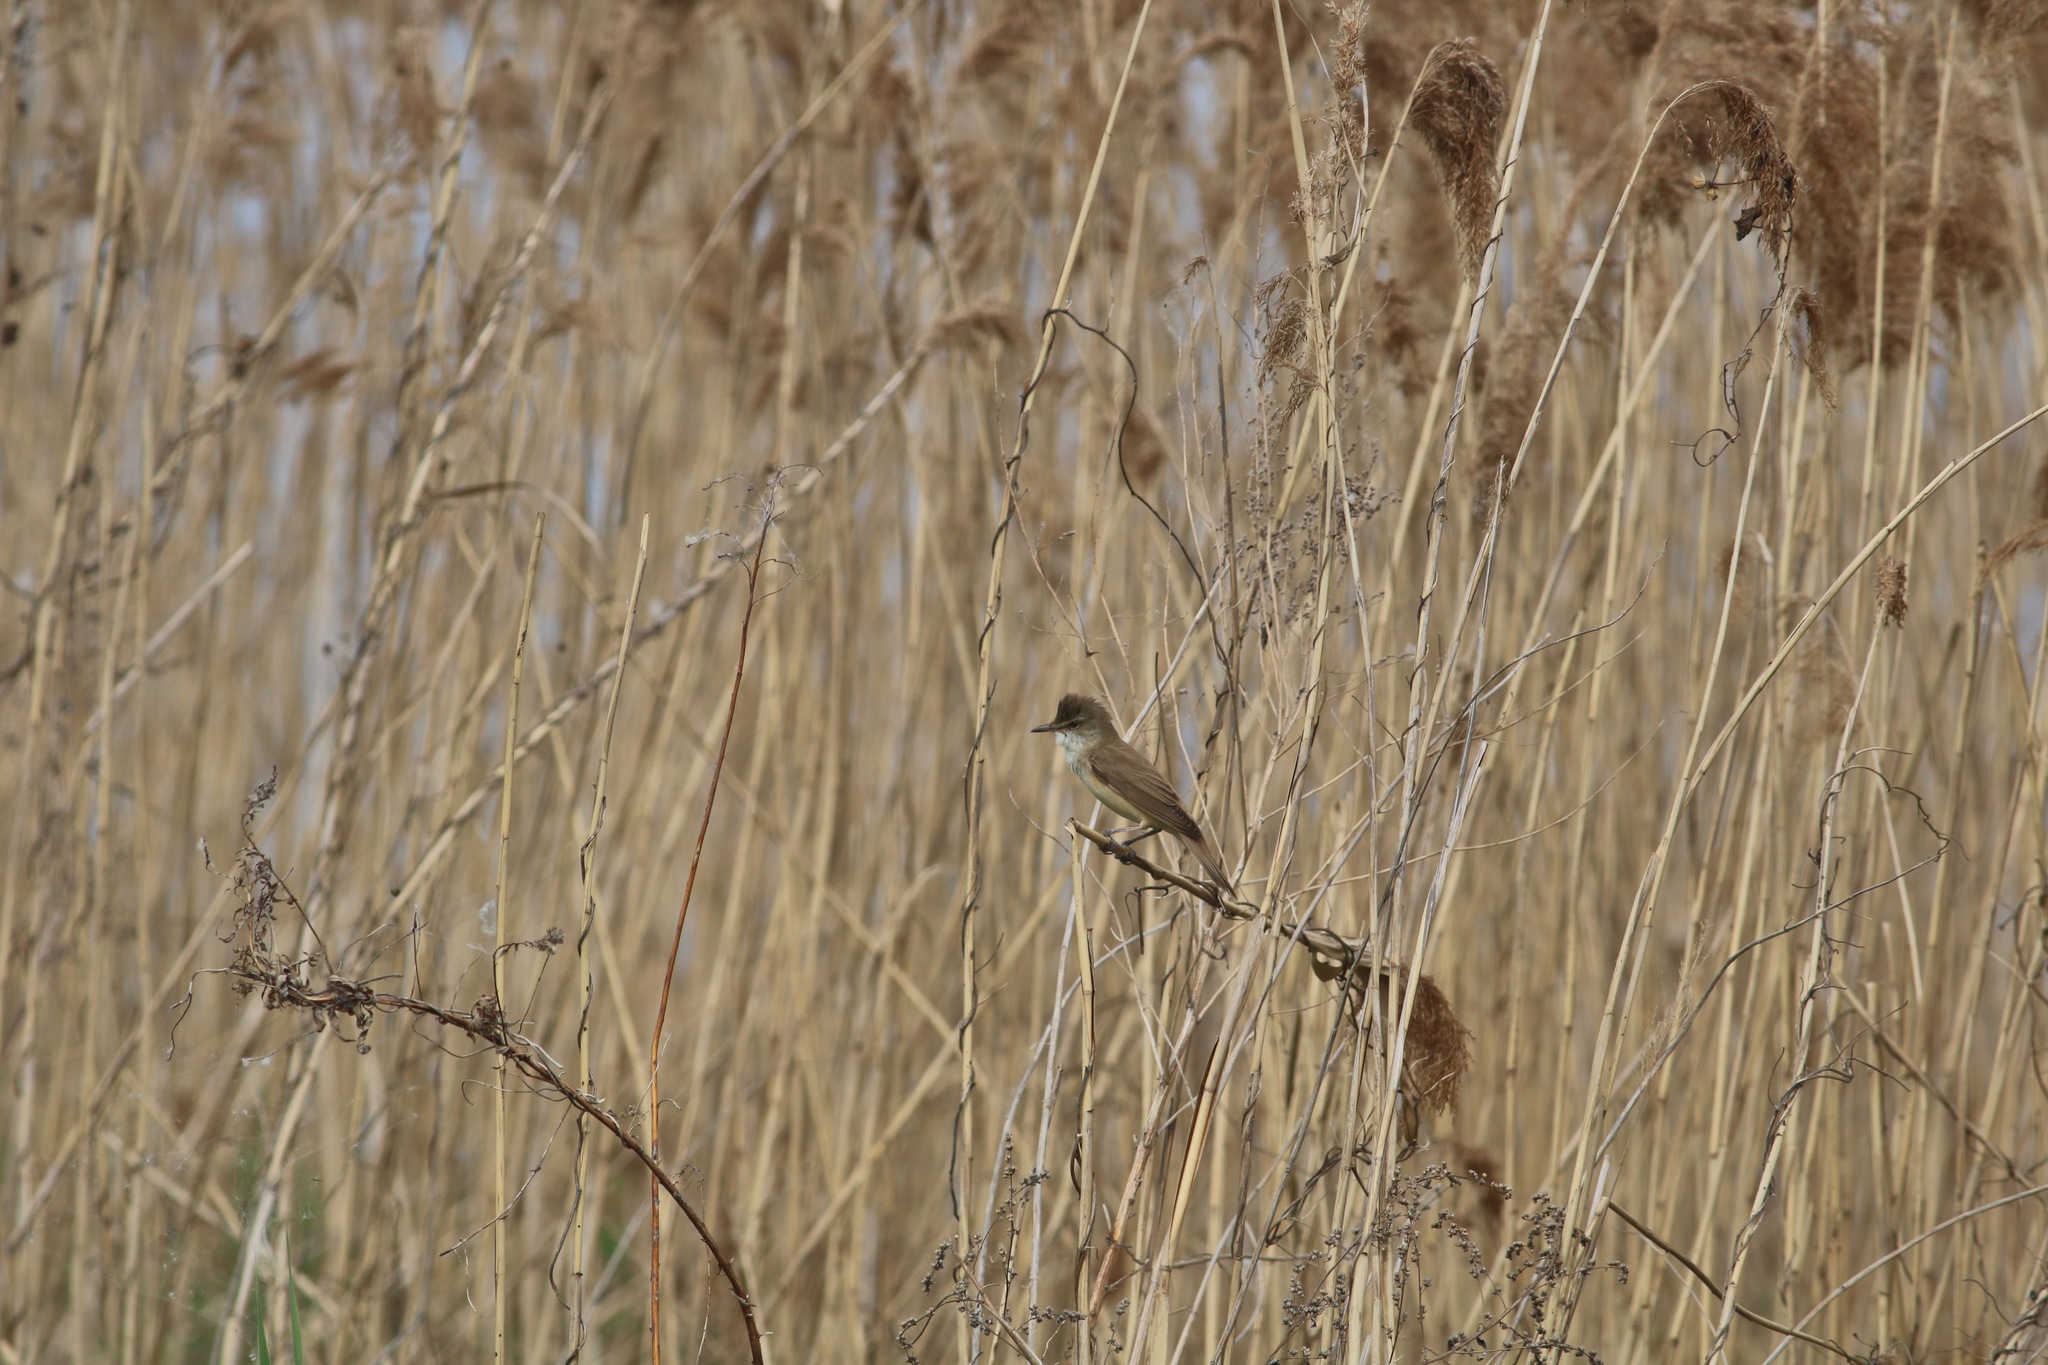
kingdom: Animalia
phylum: Chordata
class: Aves
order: Passeriformes
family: Acrocephalidae
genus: Acrocephalus
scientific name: Acrocephalus arundinaceus
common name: Great reed warbler
